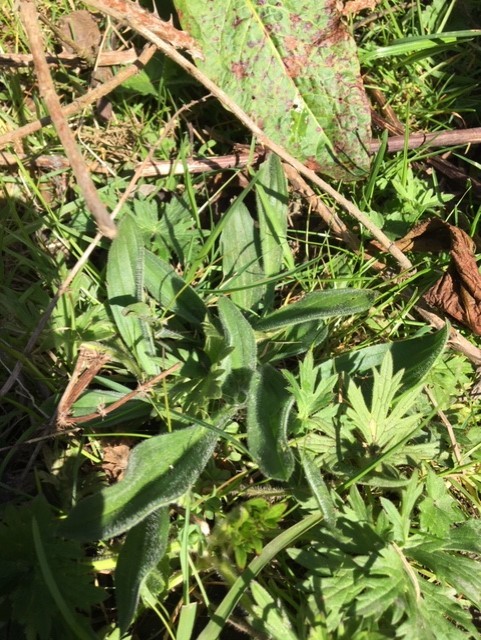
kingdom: Plantae
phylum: Tracheophyta
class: Magnoliopsida
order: Lamiales
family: Plantaginaceae
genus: Plantago
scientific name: Plantago lanceolata
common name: Ribwort plantain
